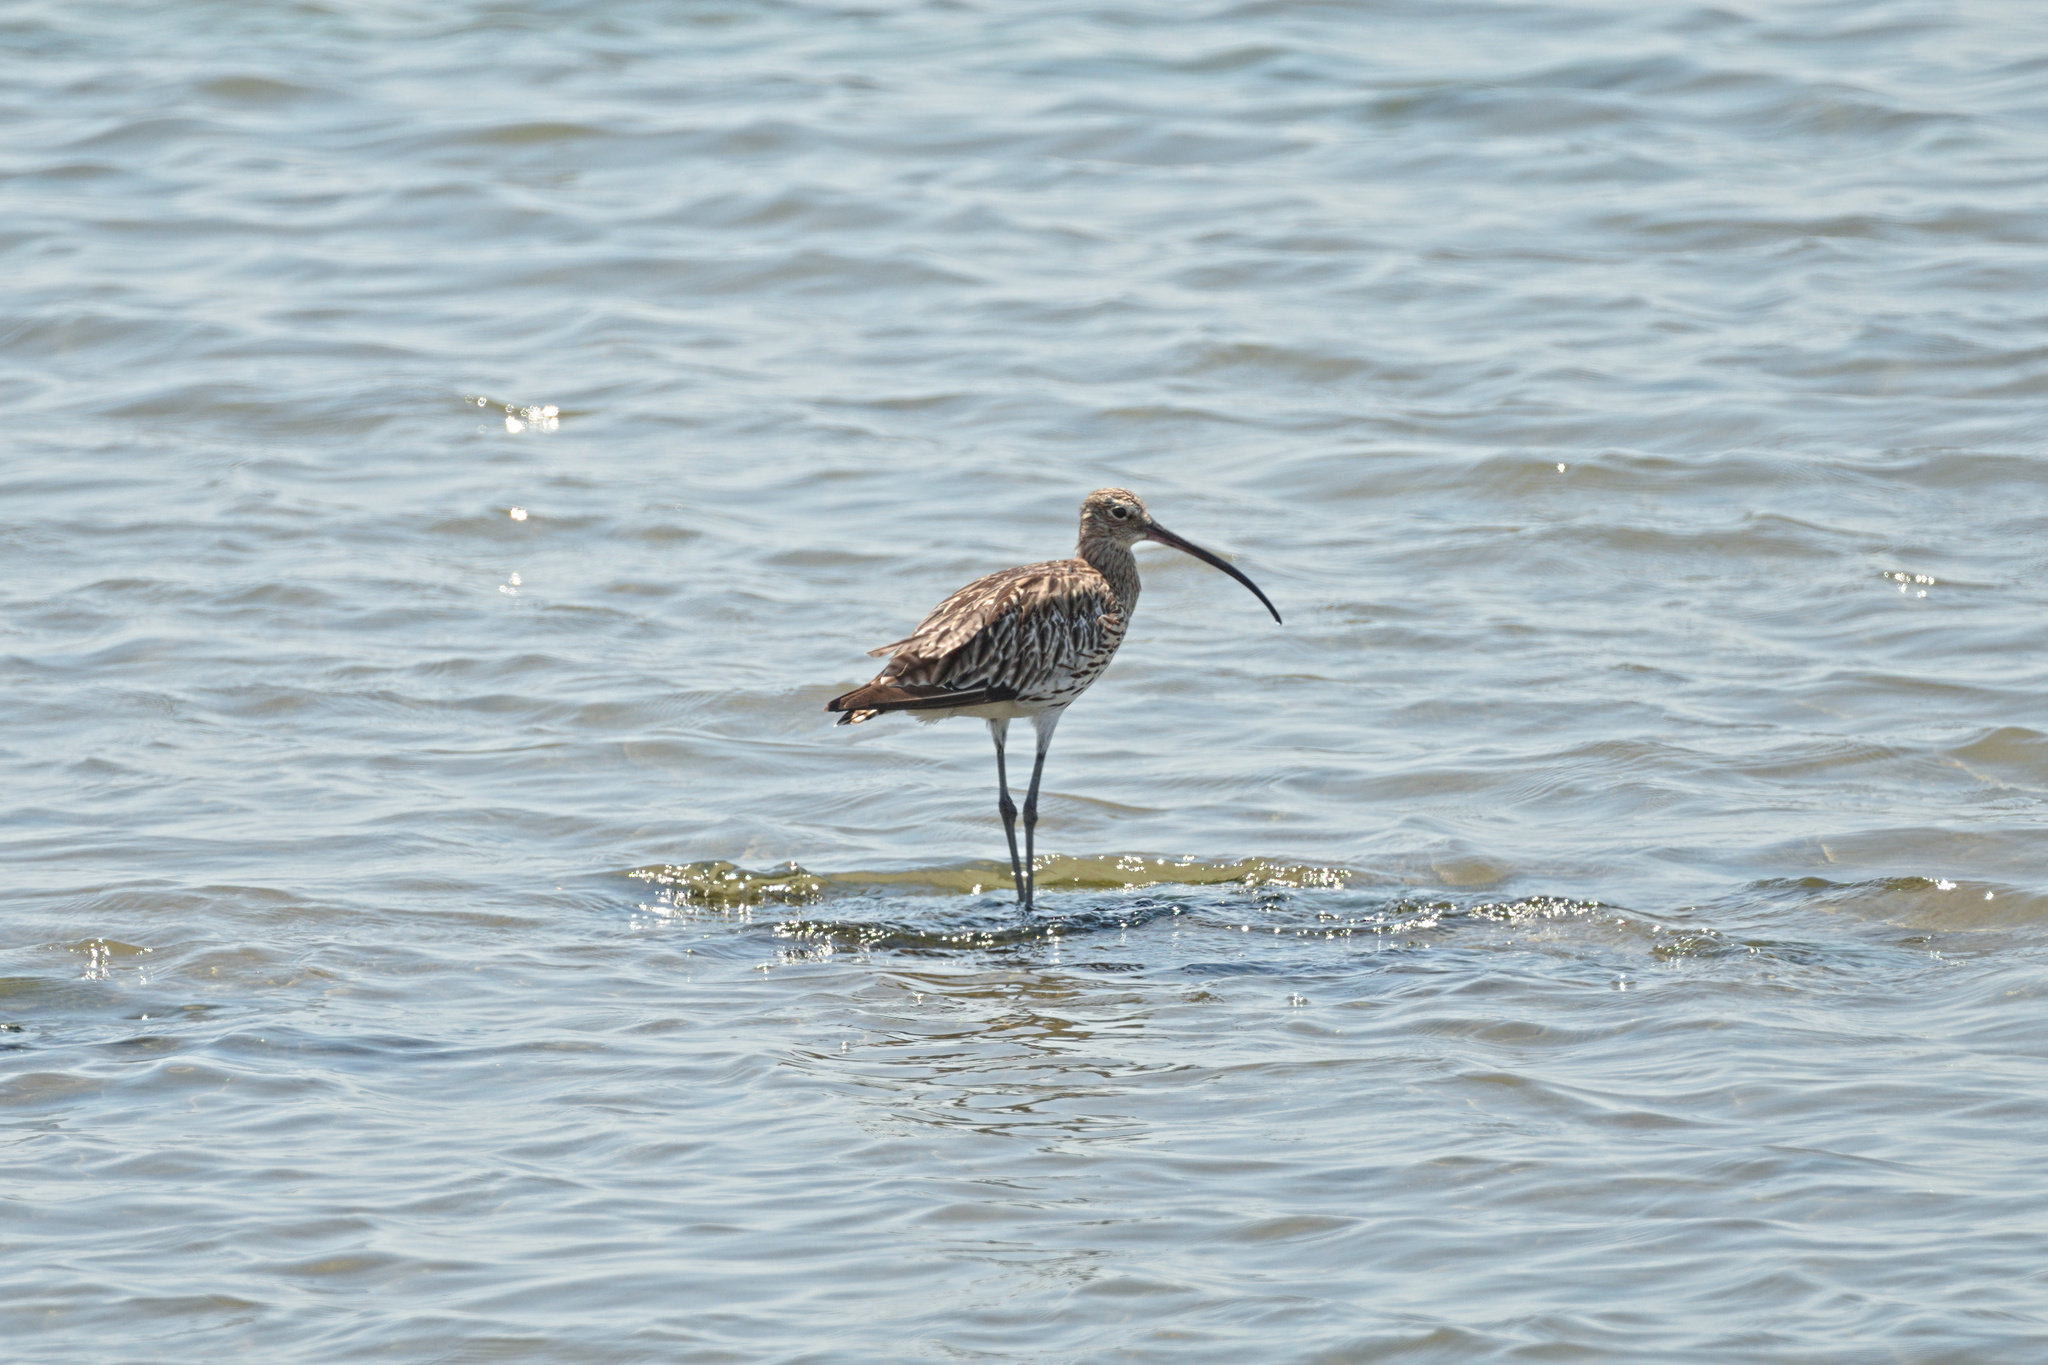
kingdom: Animalia
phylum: Chordata
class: Aves
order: Charadriiformes
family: Scolopacidae
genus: Numenius
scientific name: Numenius arquata
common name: Eurasian curlew
